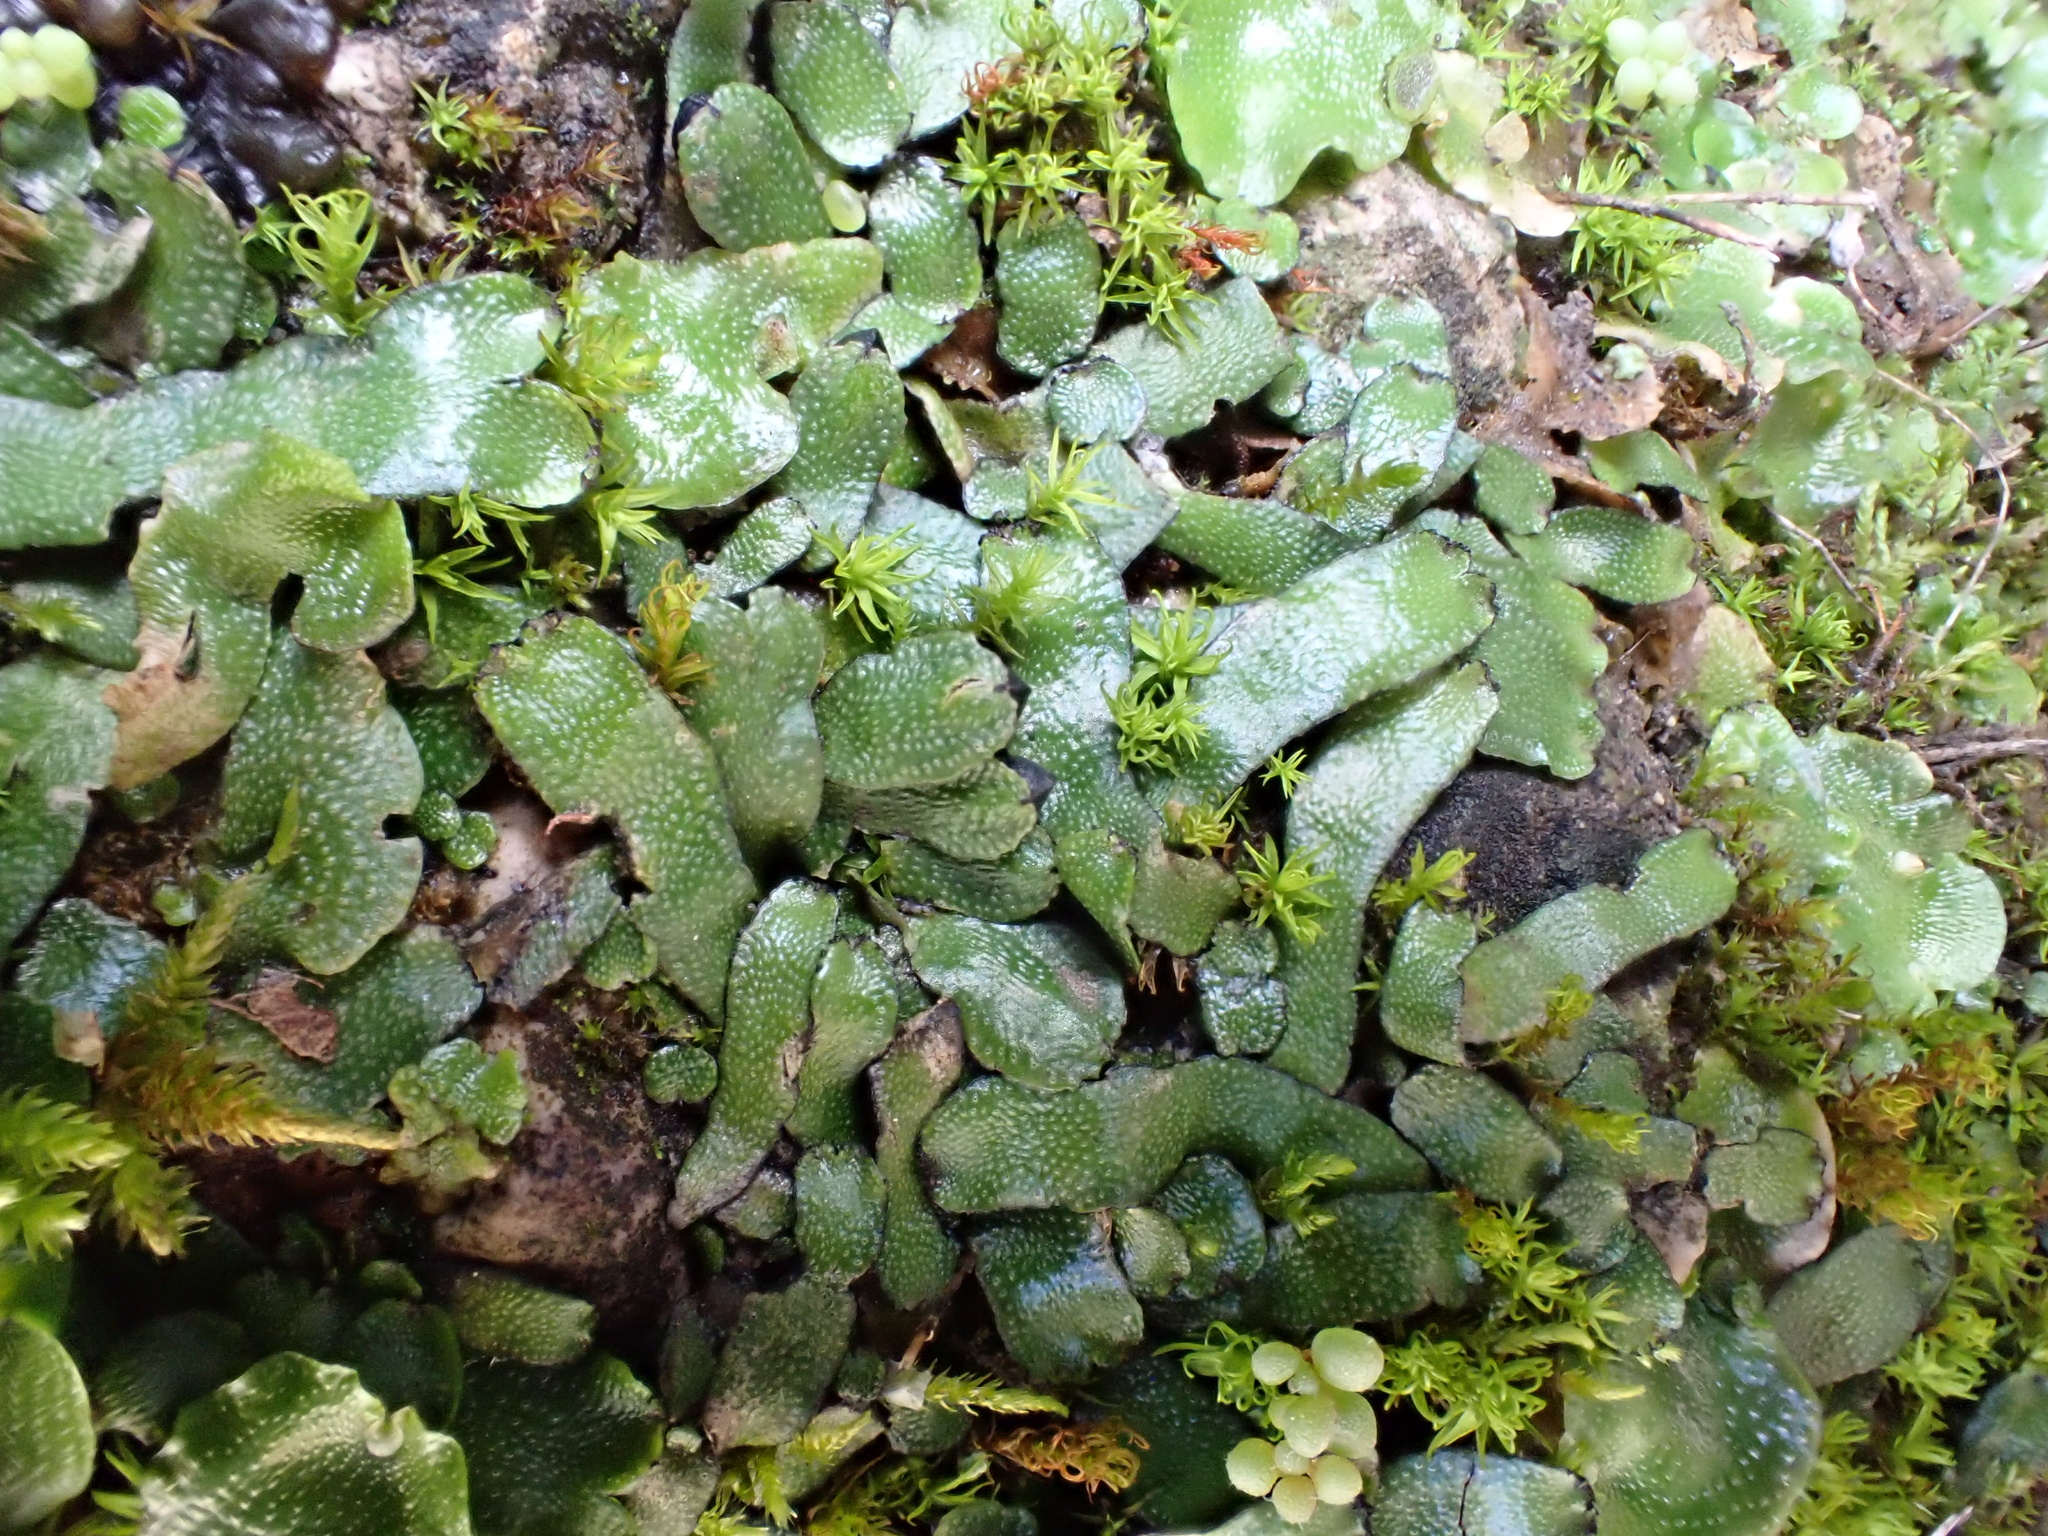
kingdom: Plantae
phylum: Marchantiophyta
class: Marchantiopsida
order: Marchantiales
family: Targioniaceae
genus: Targionia
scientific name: Targionia lorbeeriana
